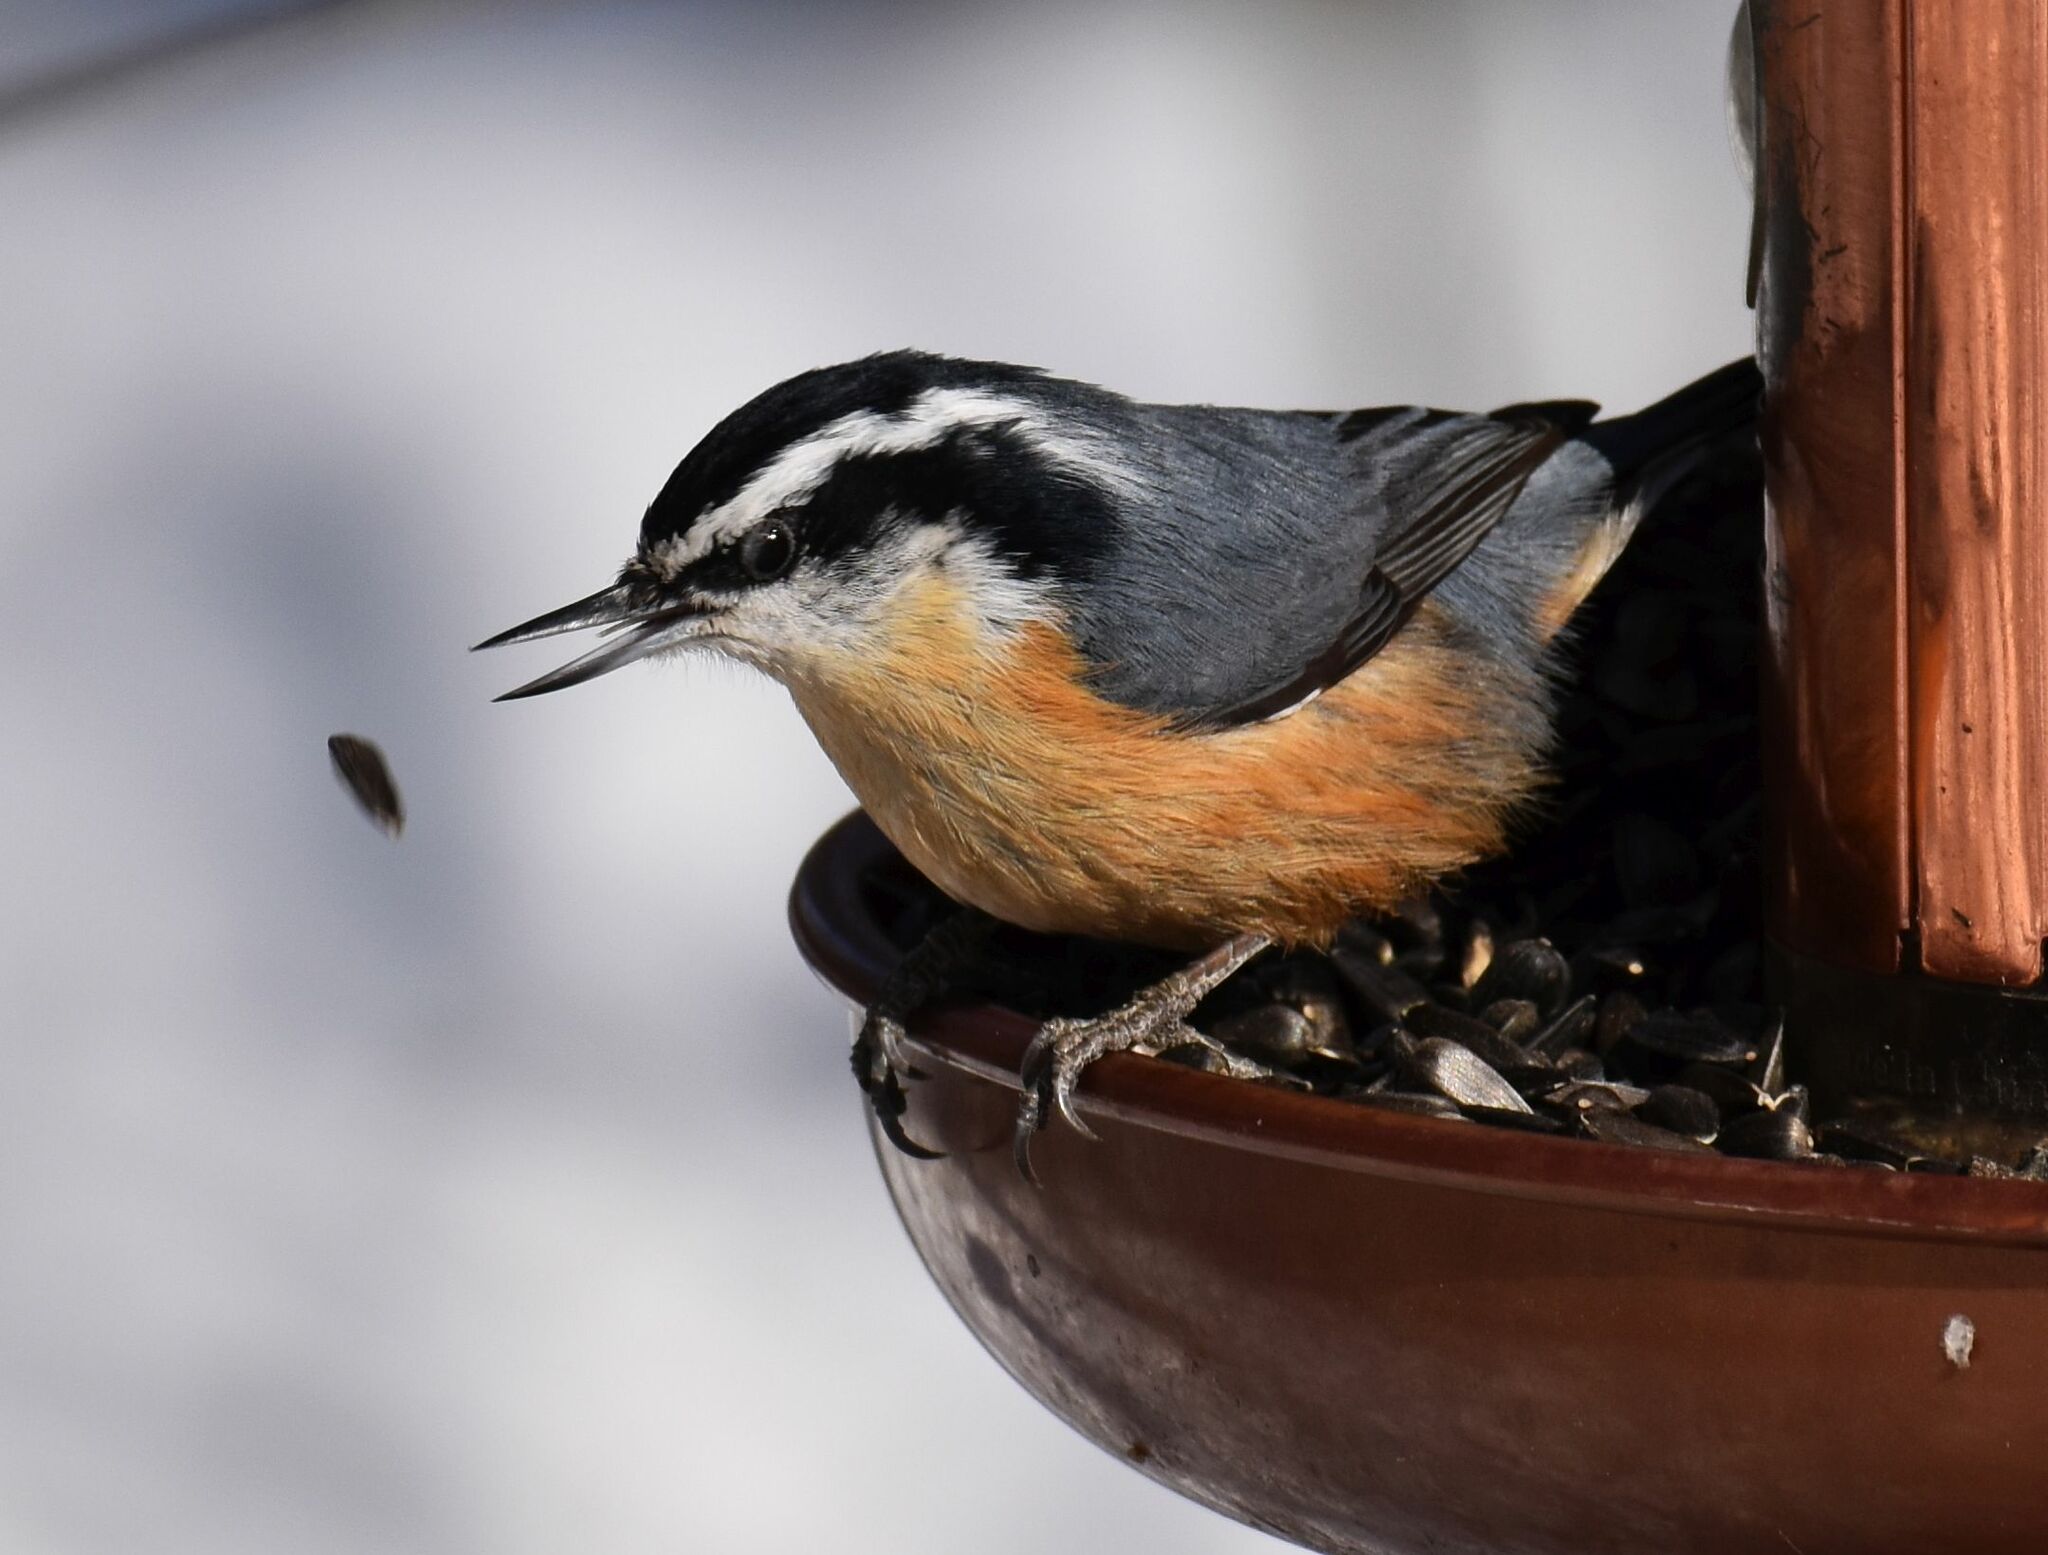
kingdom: Animalia
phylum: Chordata
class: Aves
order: Passeriformes
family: Sittidae
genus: Sitta
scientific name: Sitta canadensis
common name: Red-breasted nuthatch
